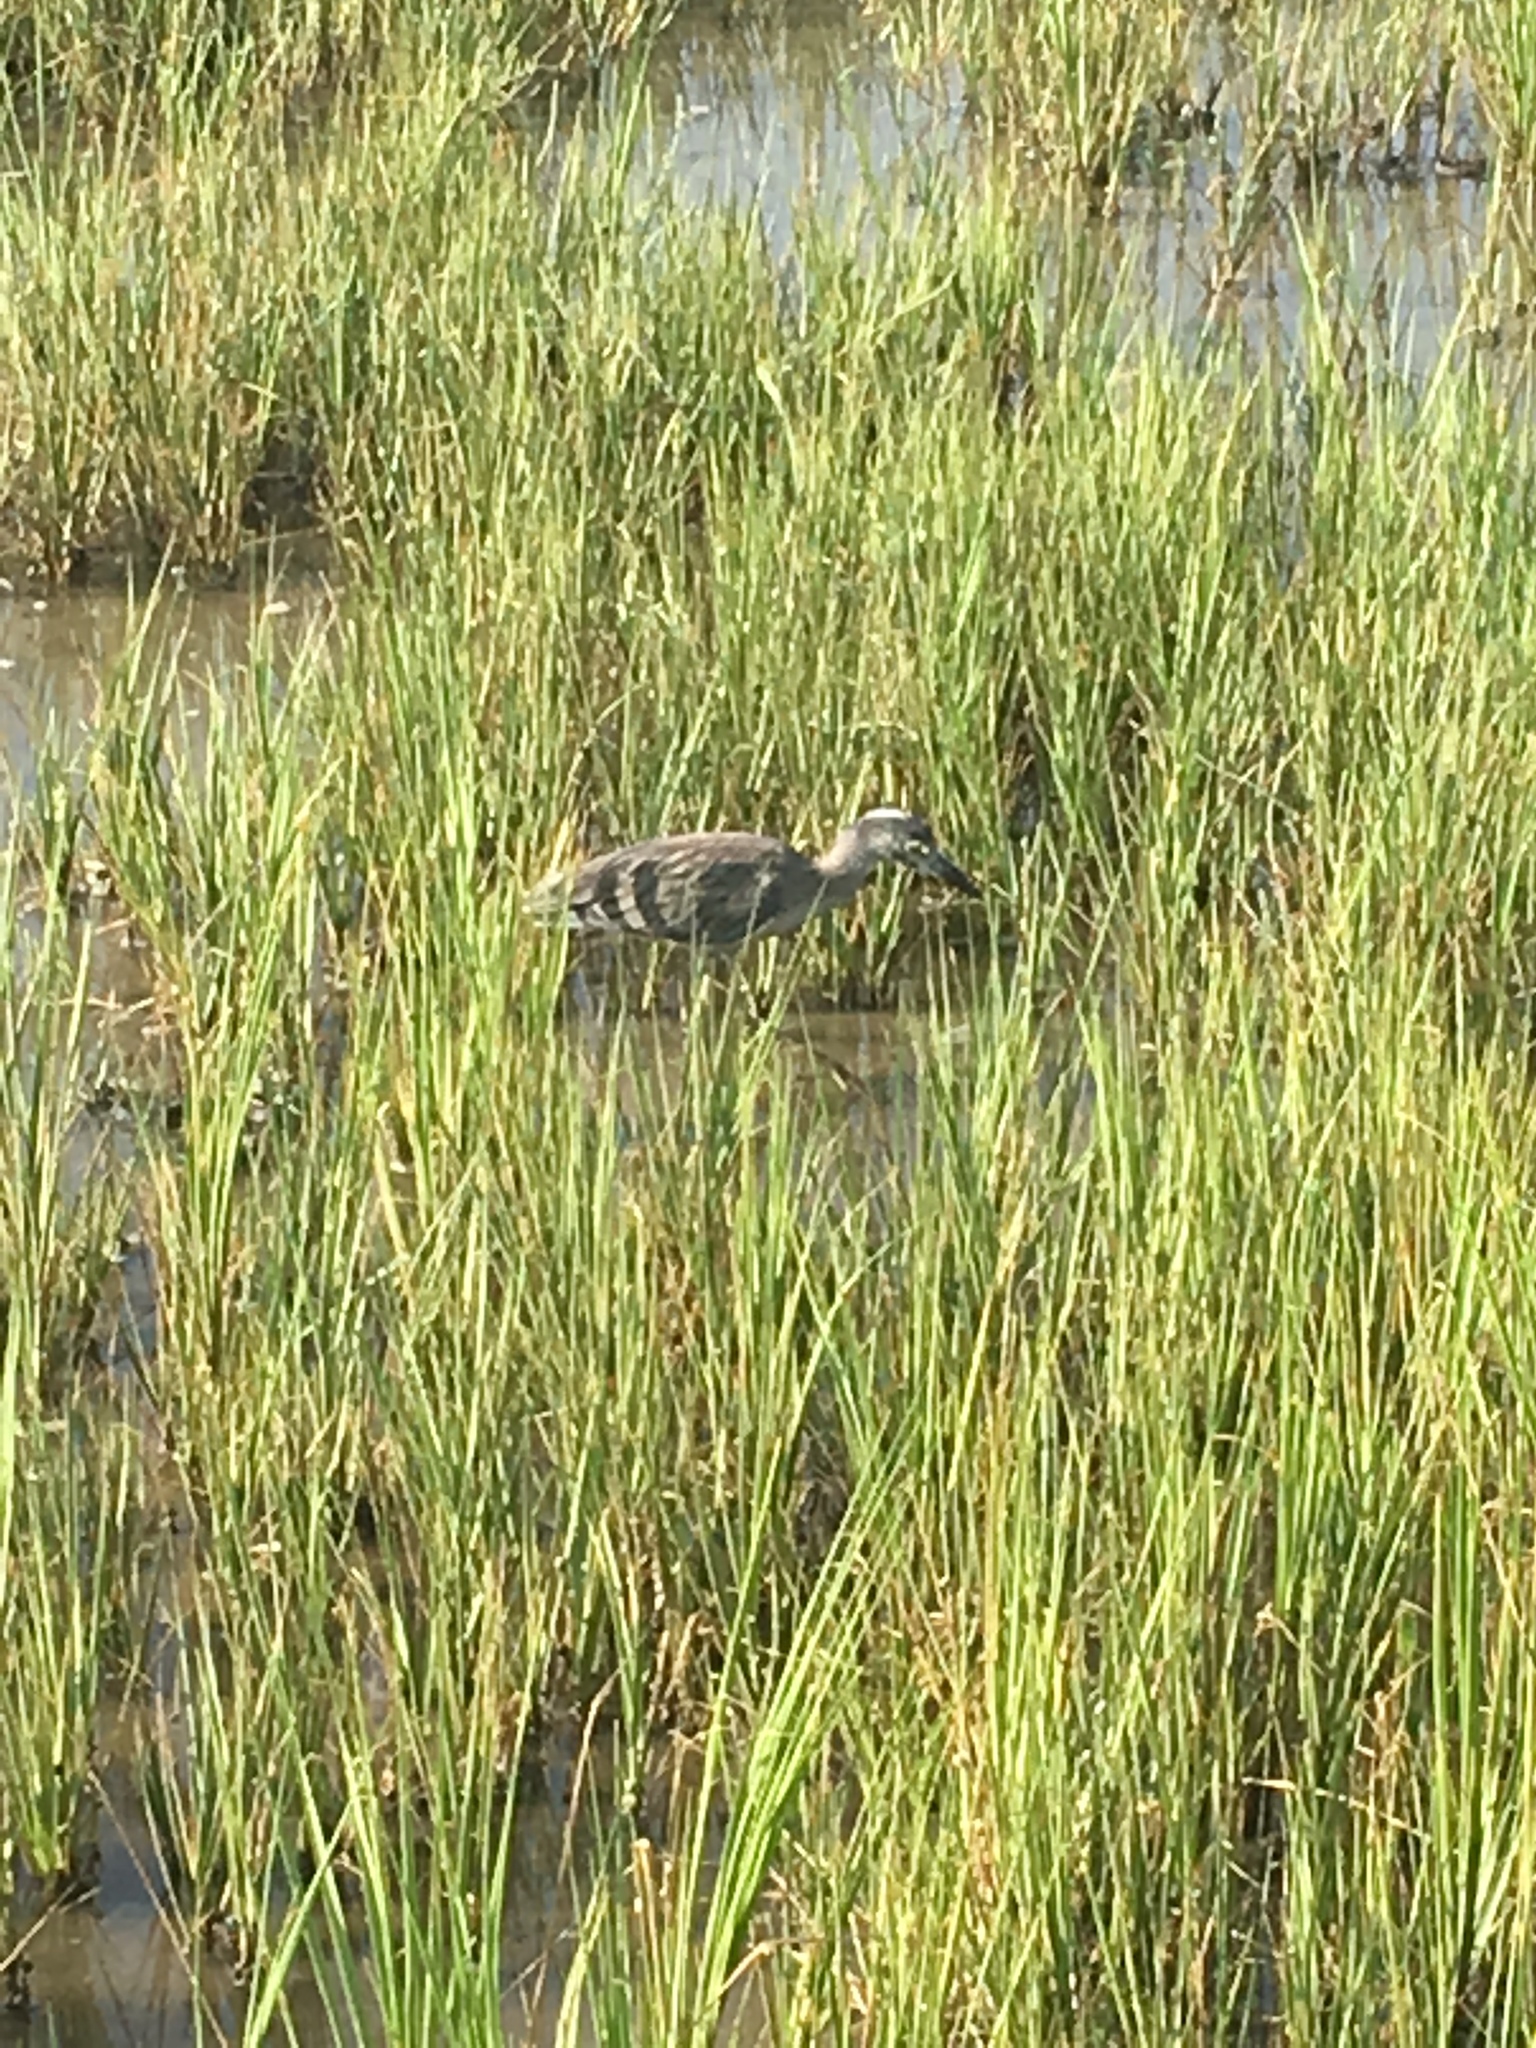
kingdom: Animalia
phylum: Chordata
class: Aves
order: Pelecaniformes
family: Ardeidae
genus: Nyctanassa
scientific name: Nyctanassa violacea
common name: Yellow-crowned night heron
